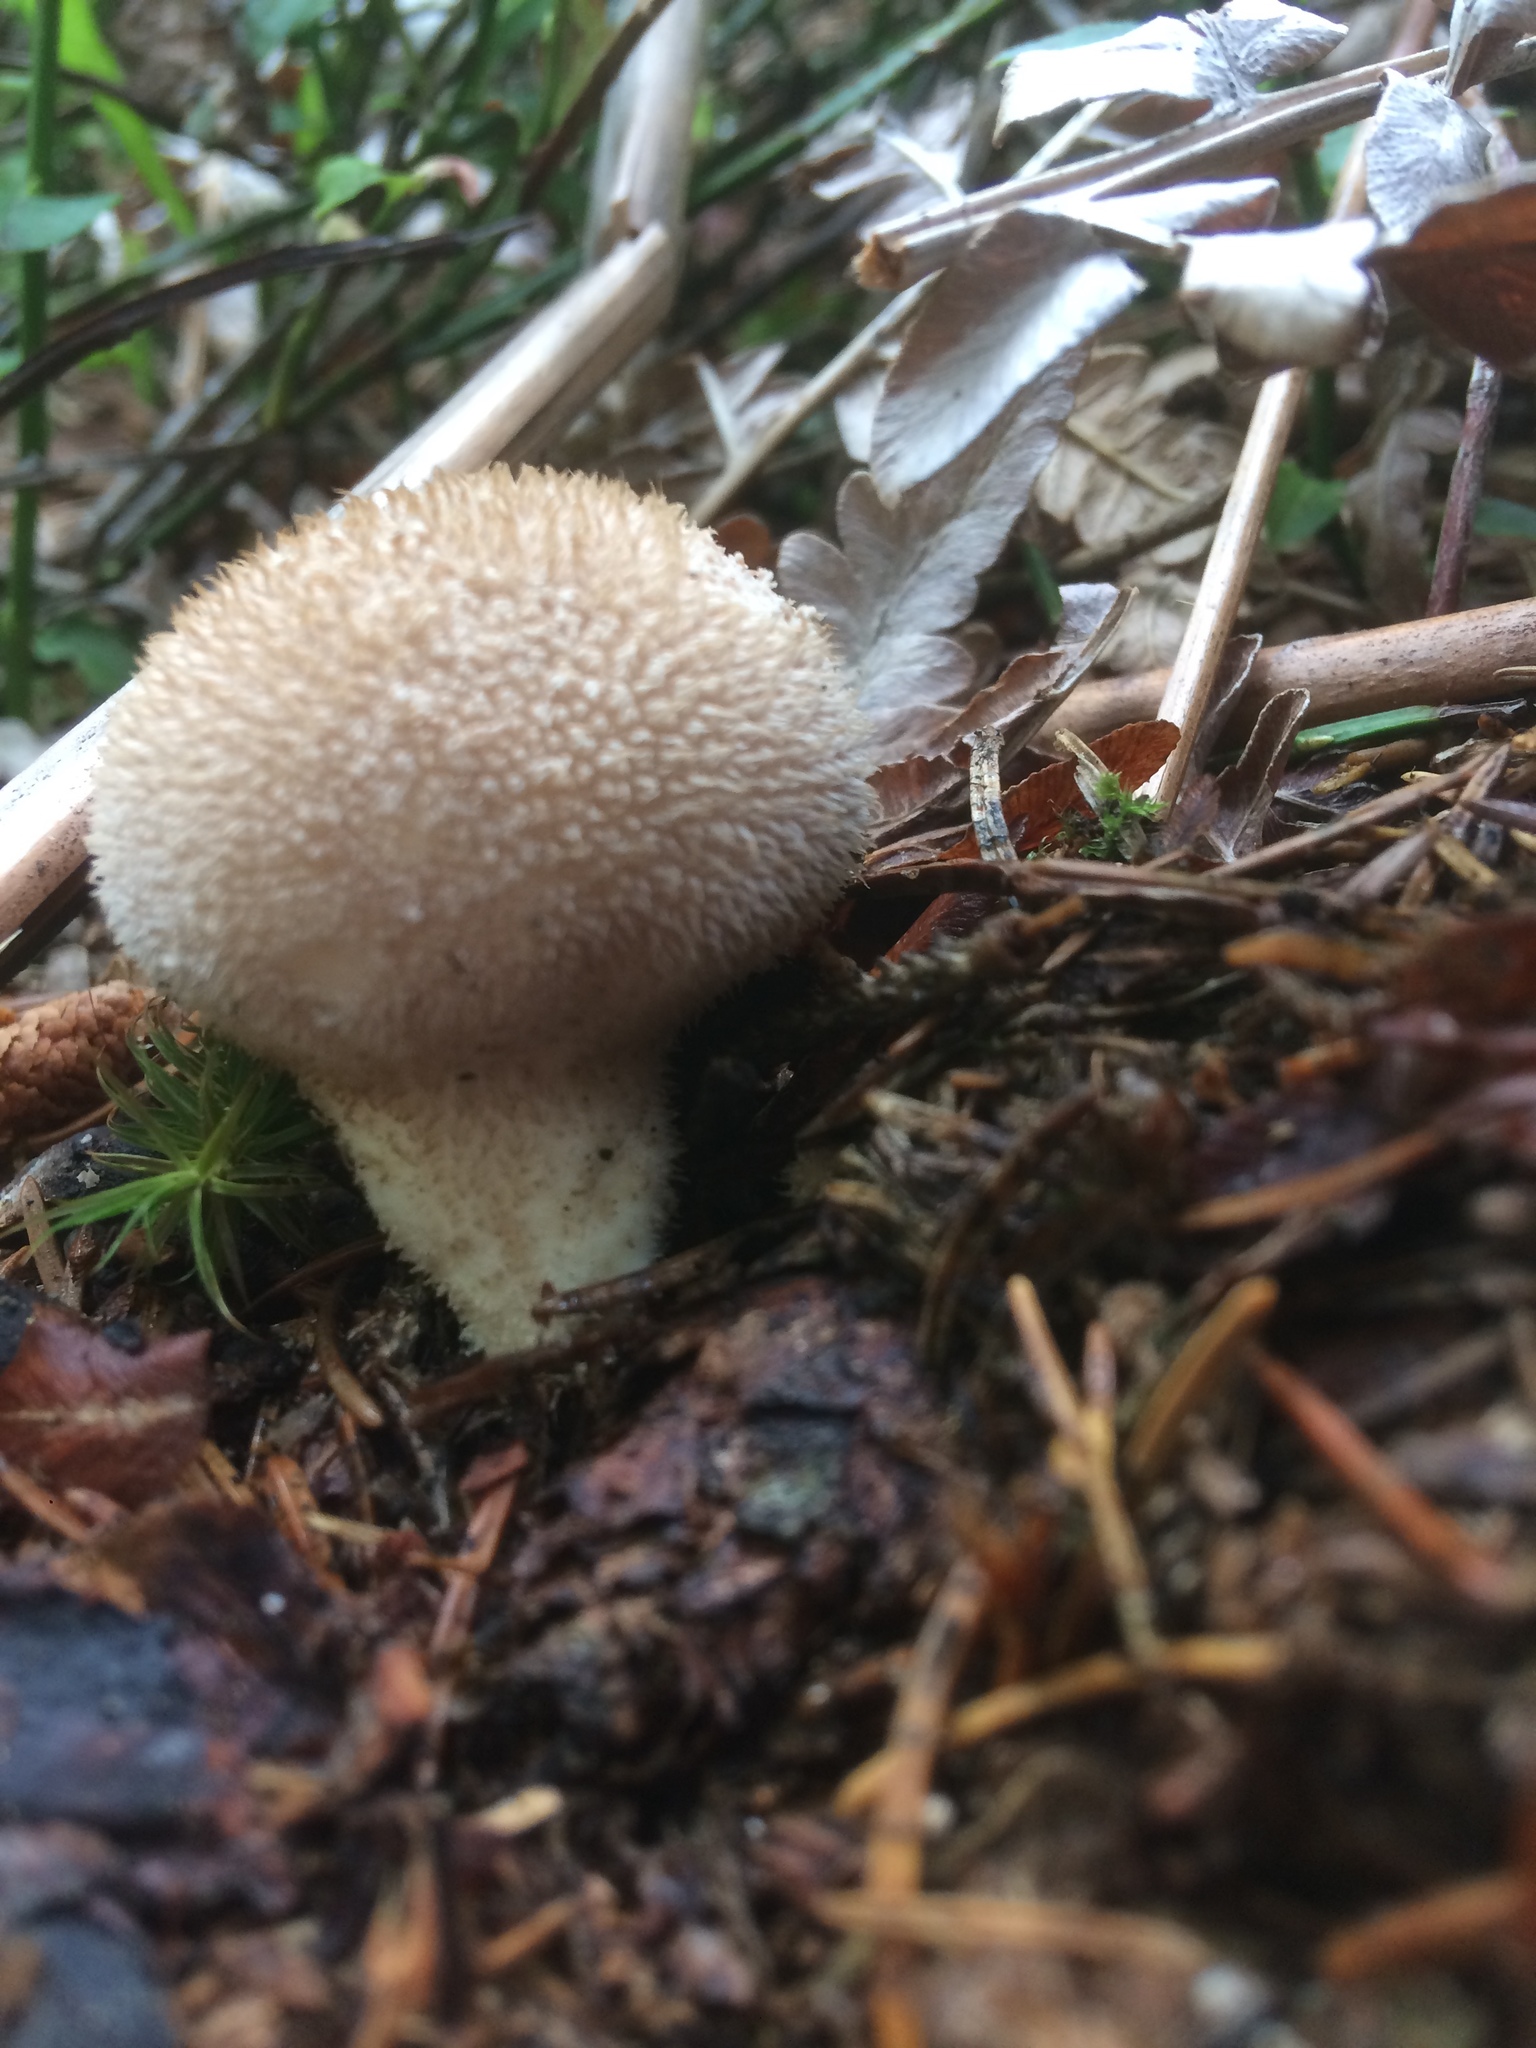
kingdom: Fungi
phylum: Basidiomycota
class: Agaricomycetes
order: Agaricales
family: Lycoperdaceae
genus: Lycoperdon
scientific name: Lycoperdon perlatum
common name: Common puffball
